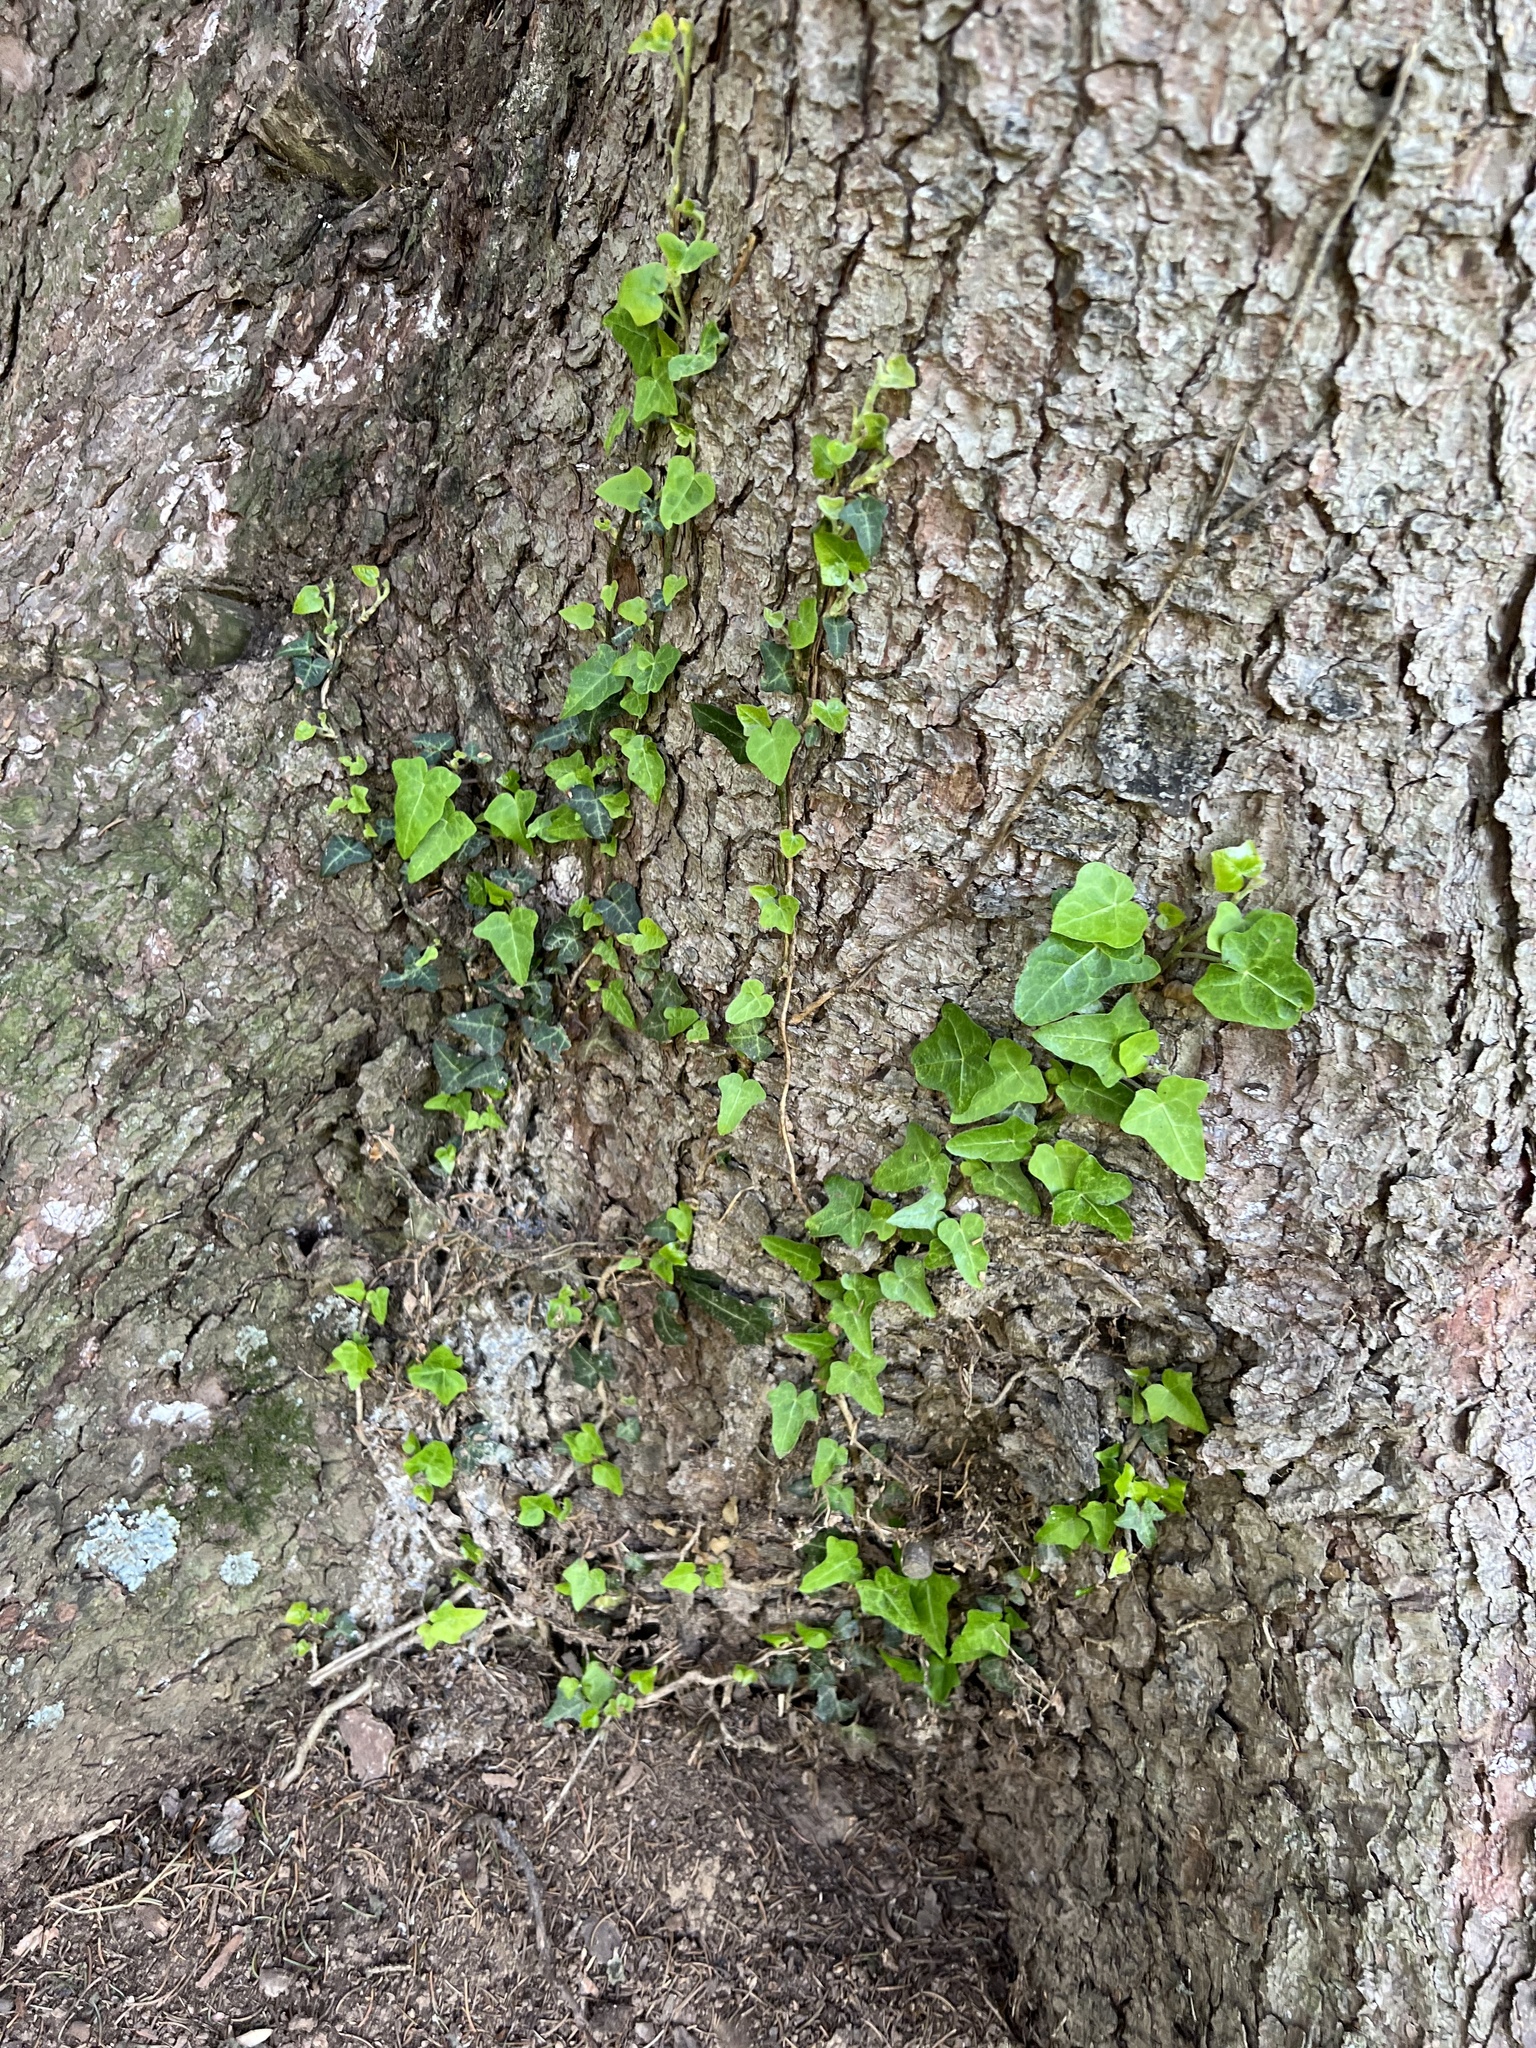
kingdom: Plantae
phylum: Tracheophyta
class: Magnoliopsida
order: Apiales
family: Araliaceae
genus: Hedera
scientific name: Hedera helix
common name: Ivy
